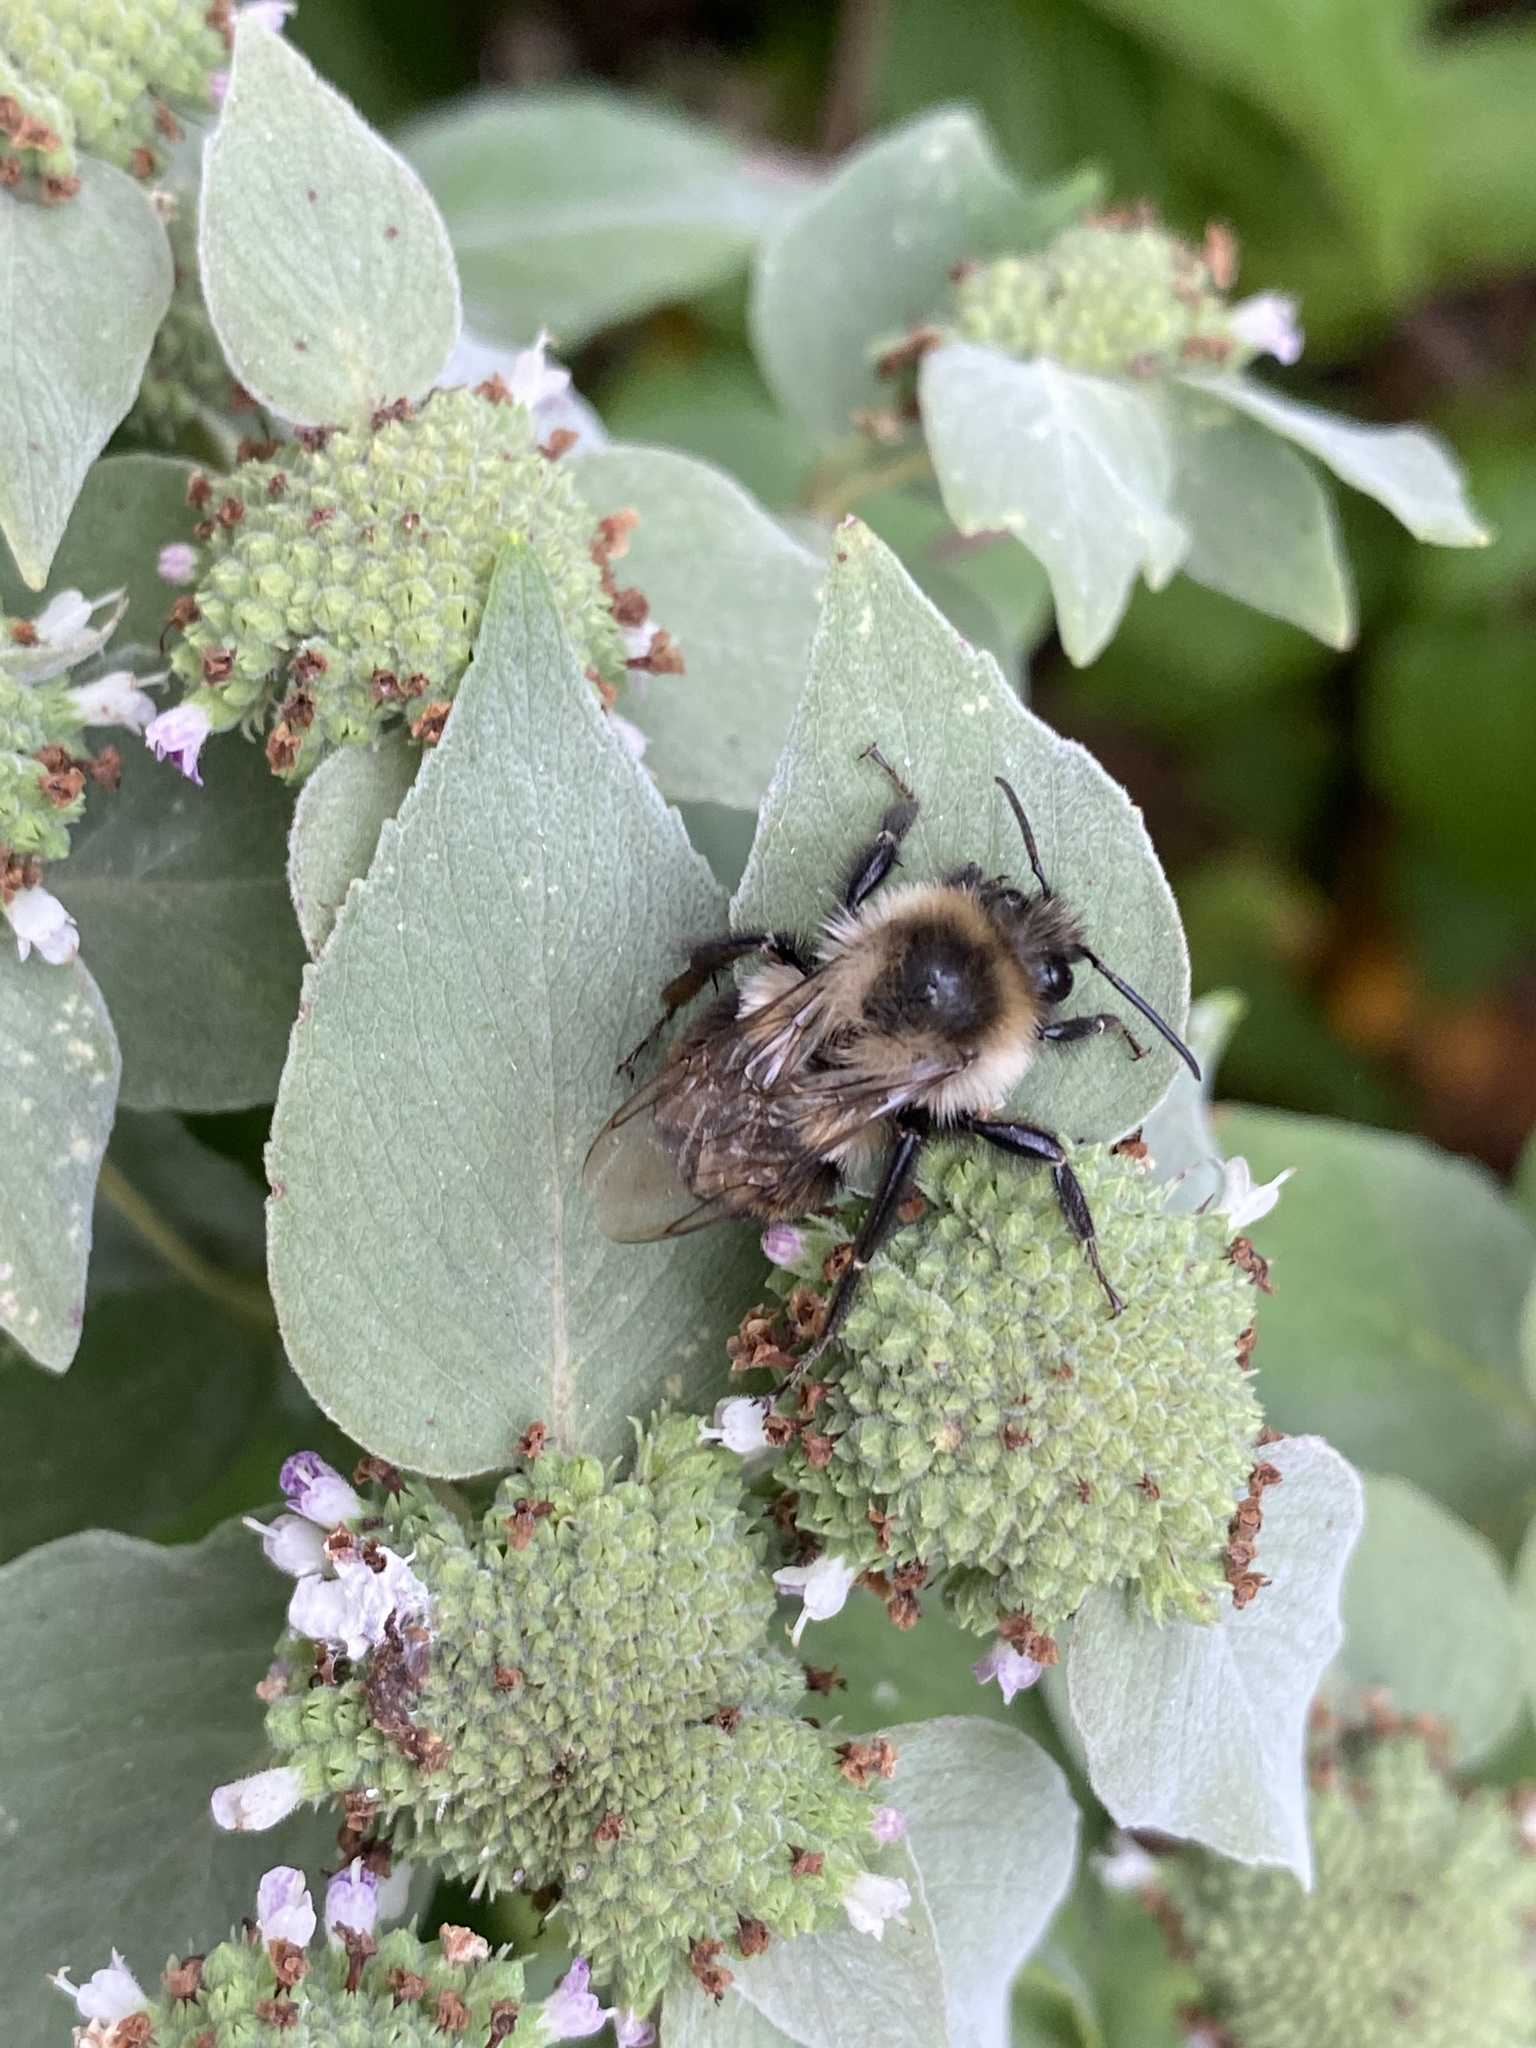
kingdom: Animalia
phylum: Arthropoda
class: Insecta
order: Hymenoptera
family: Apidae
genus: Bombus
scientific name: Bombus impatiens
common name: Common eastern bumble bee
